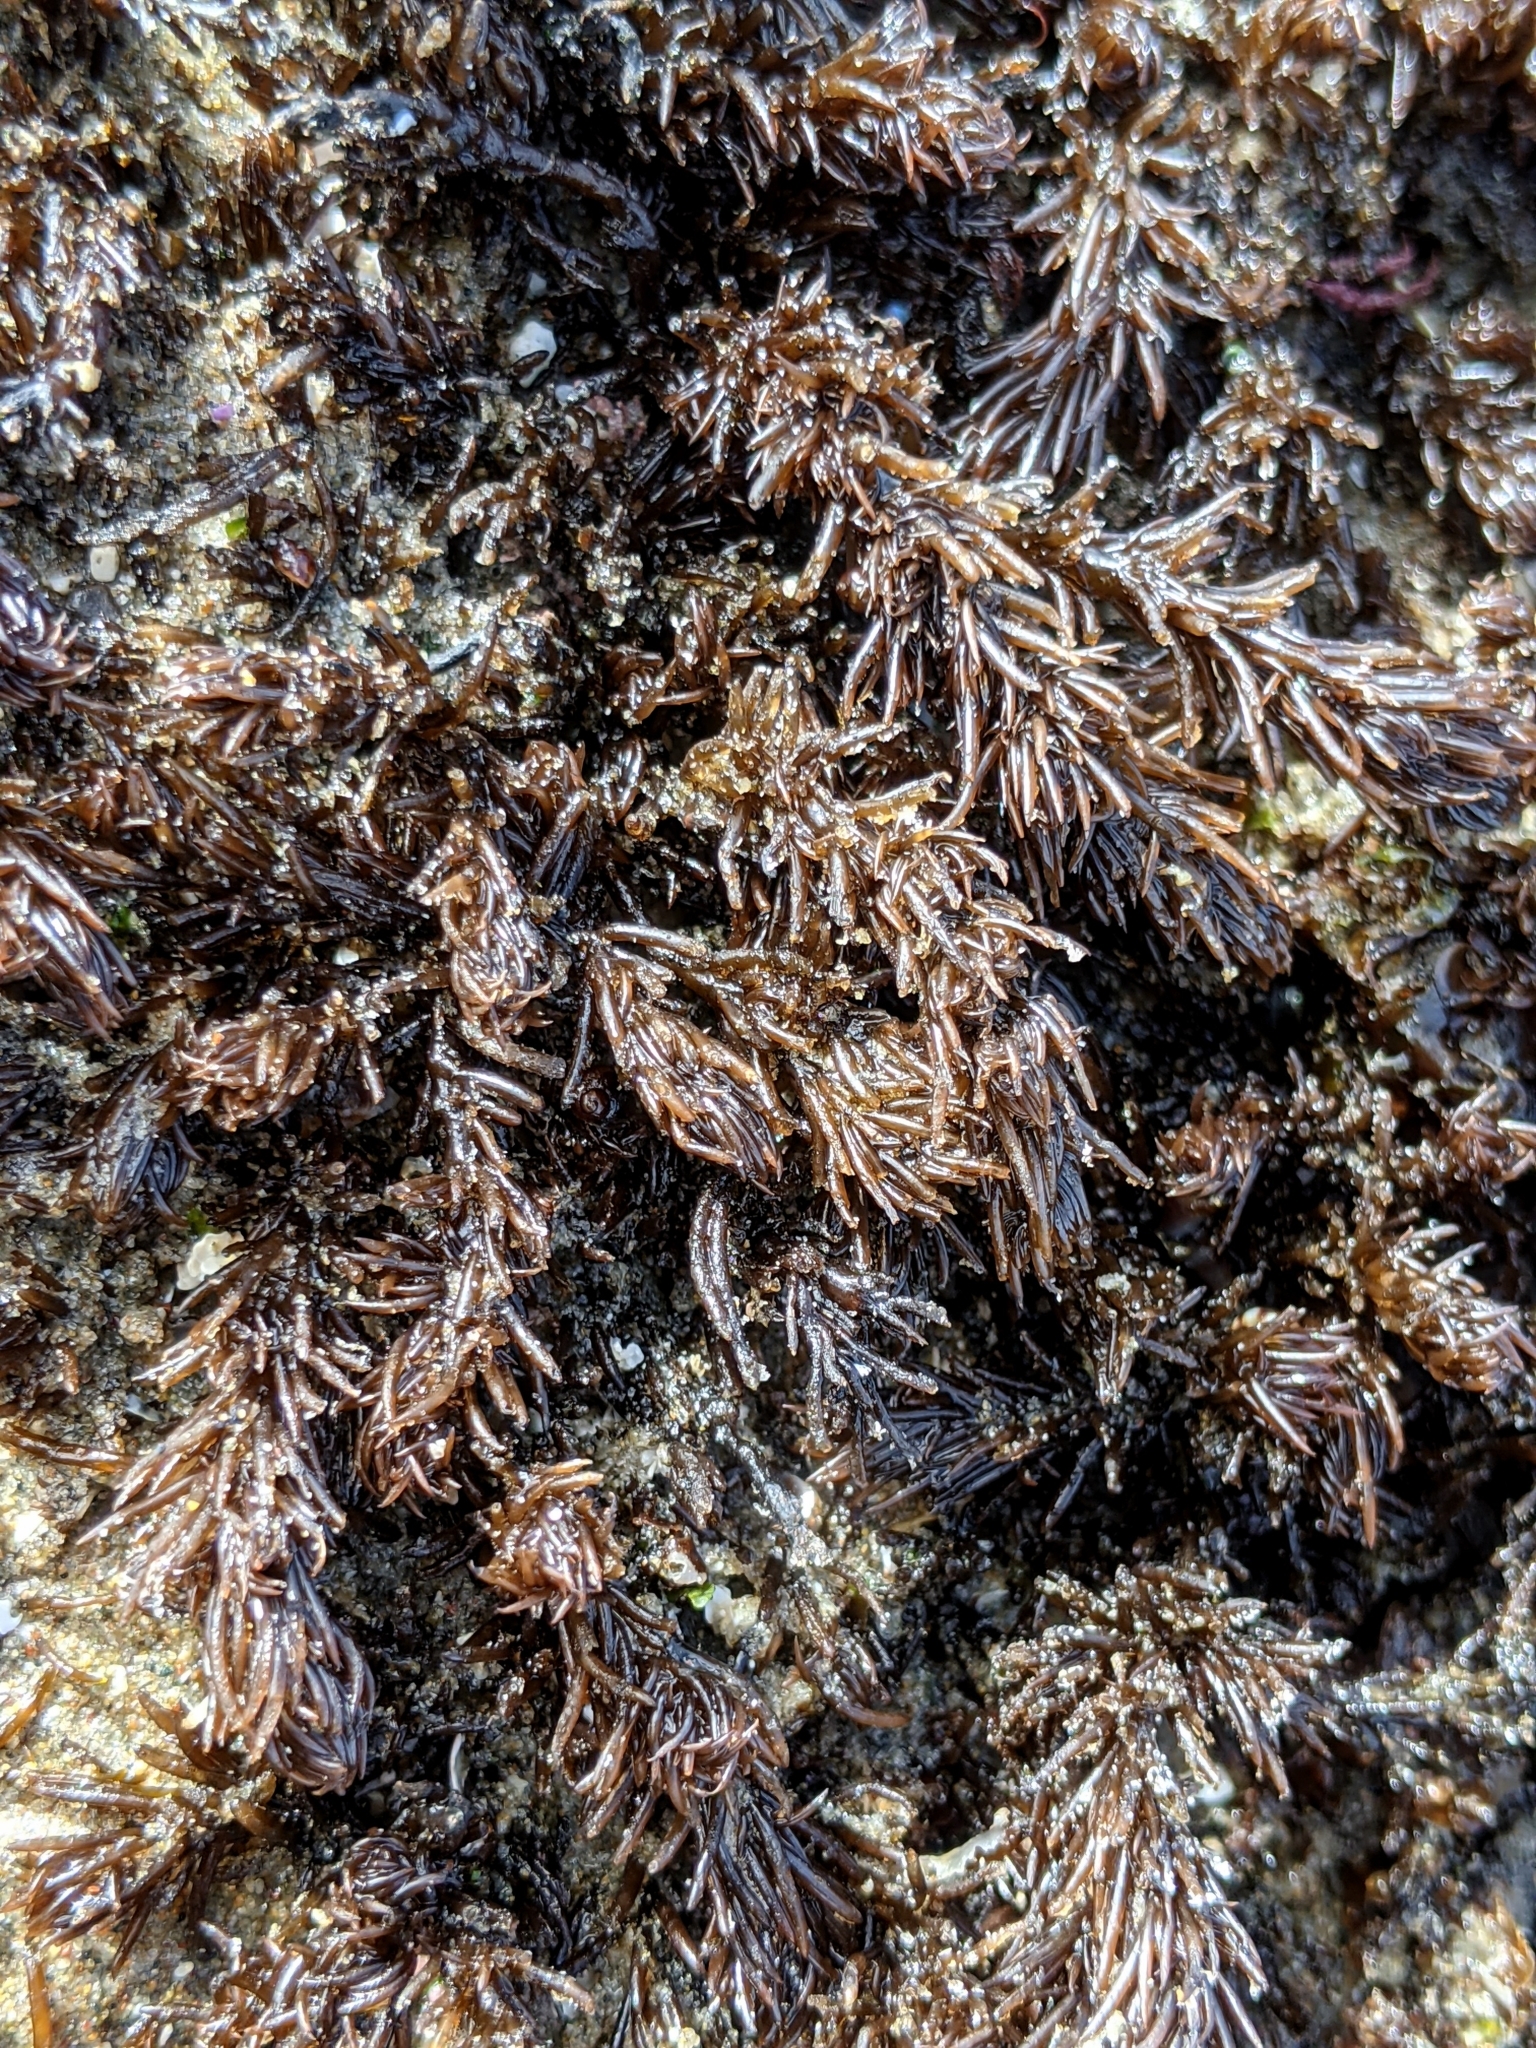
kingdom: Plantae
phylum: Rhodophyta
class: Florideophyceae
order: Ceramiales
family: Rhodomelaceae
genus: Neorhodomela
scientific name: Neorhodomela larix
